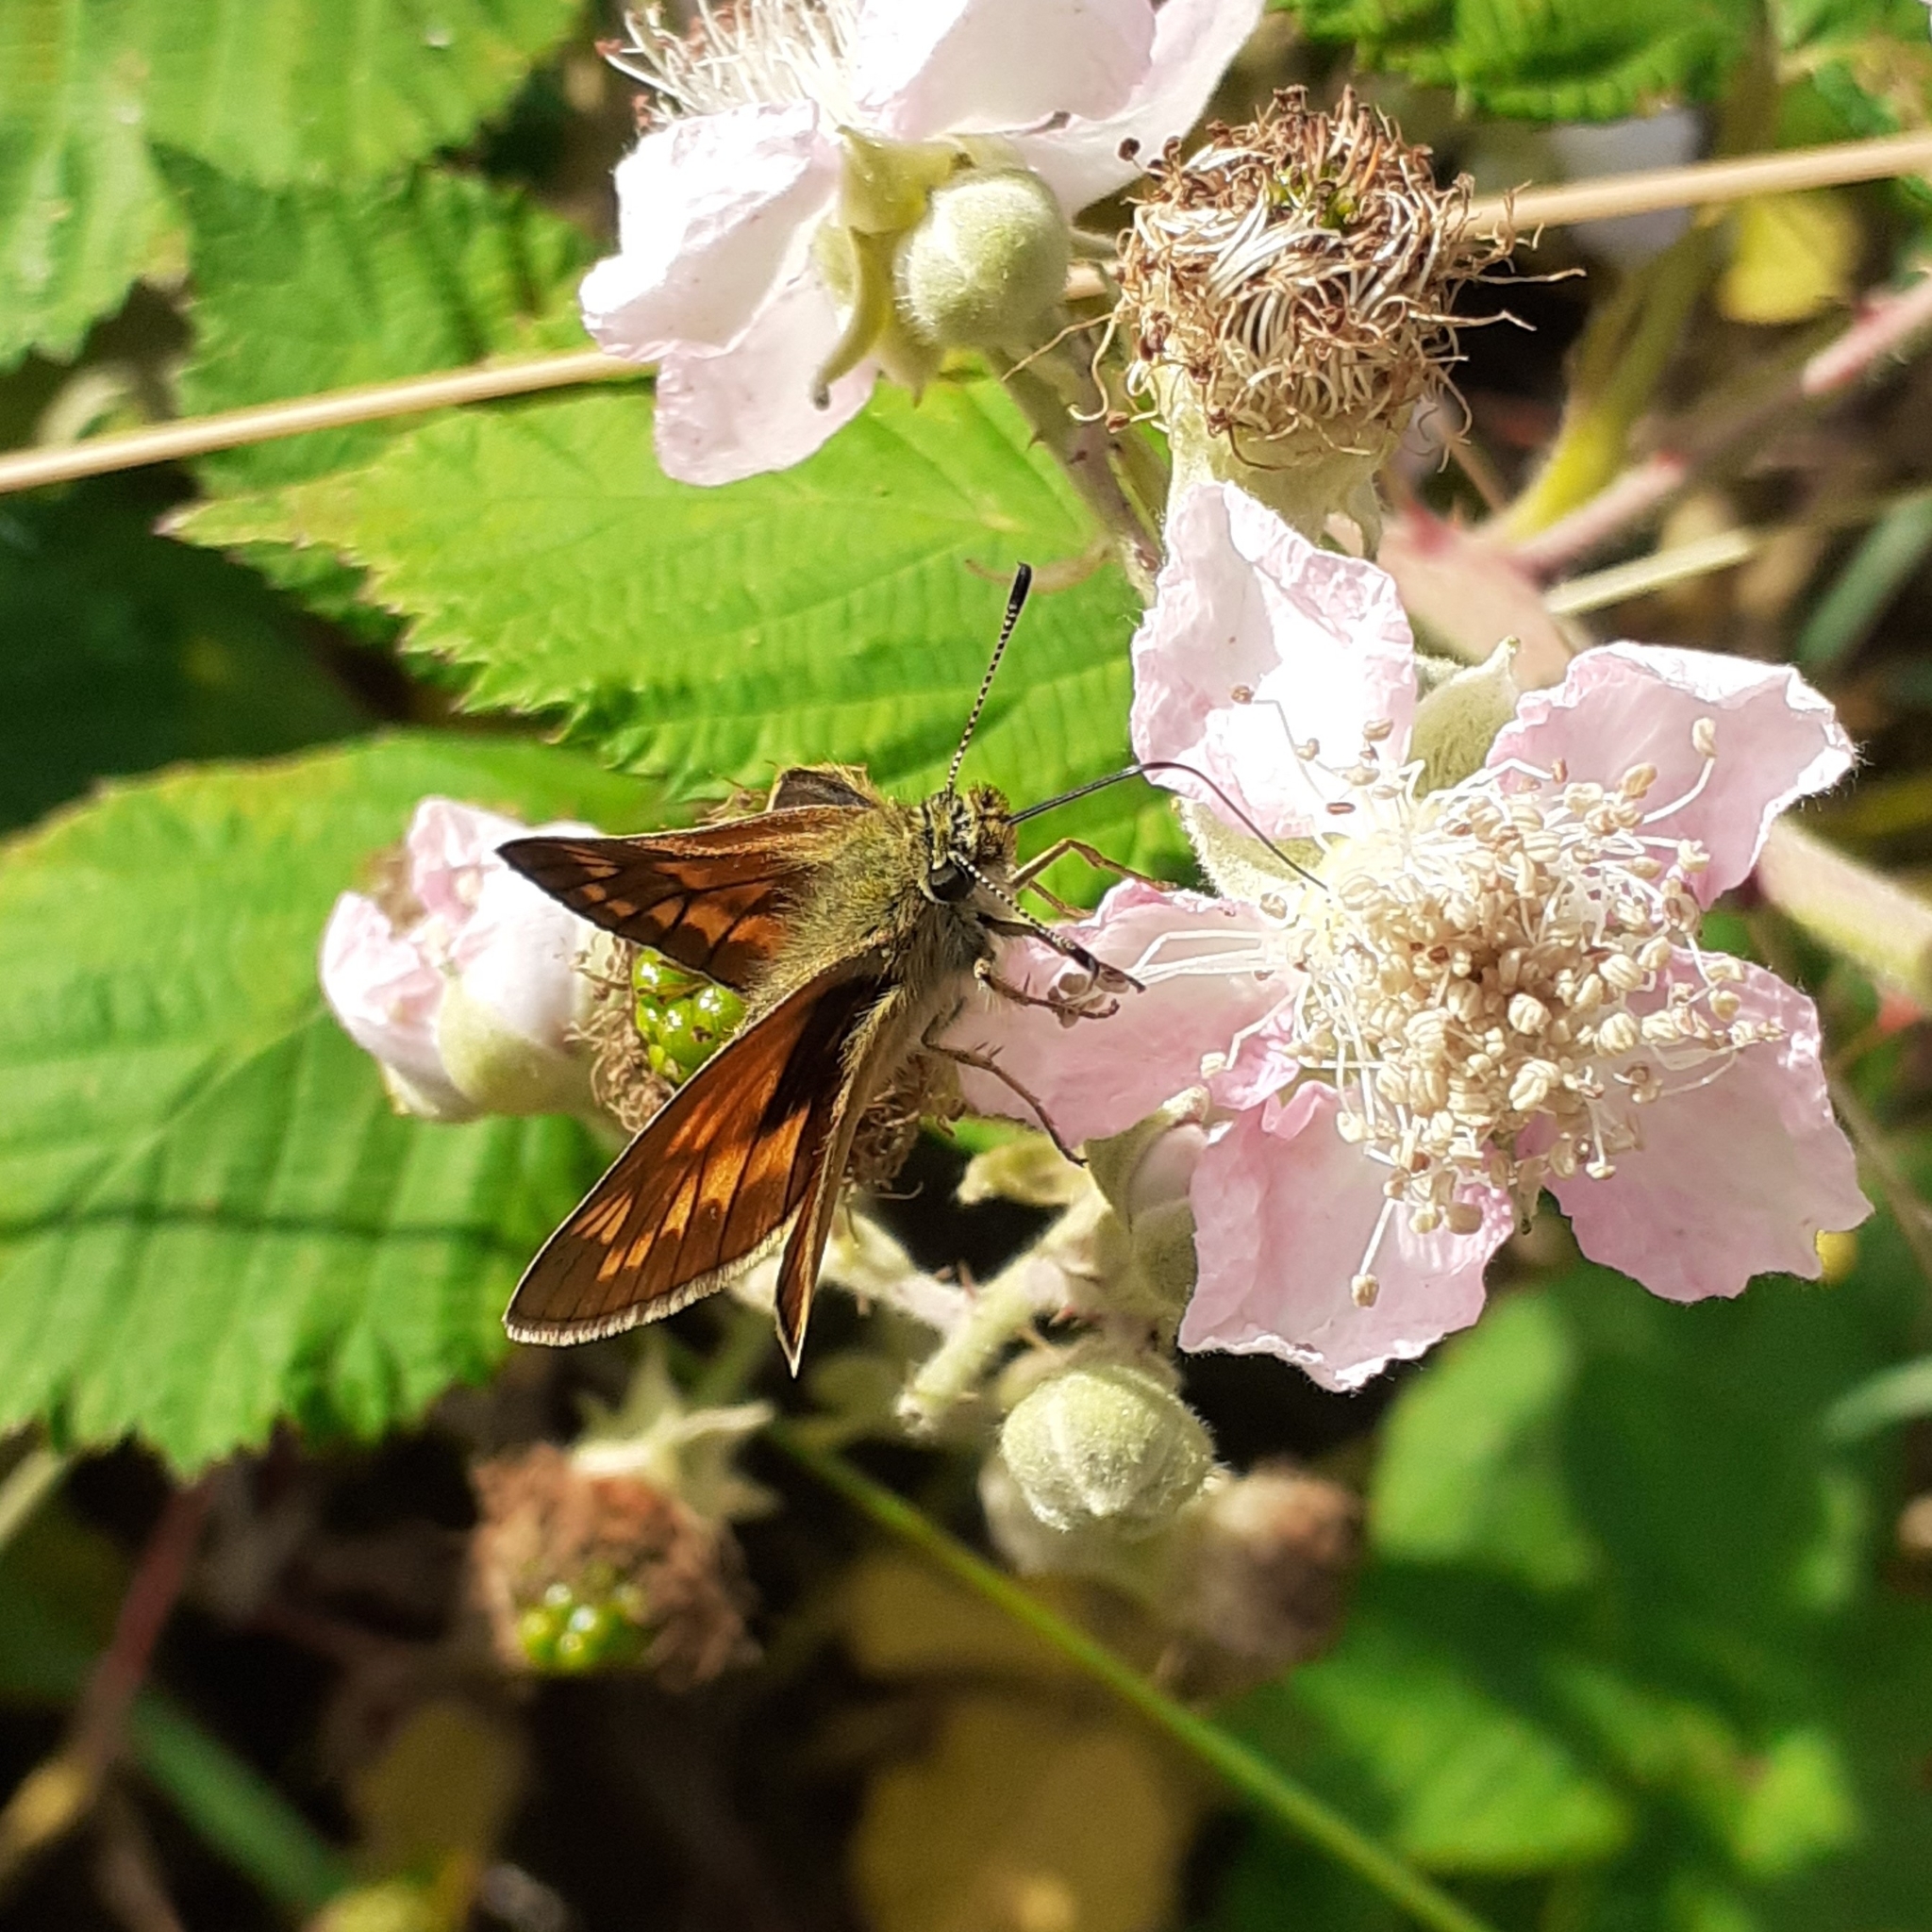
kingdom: Animalia
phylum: Arthropoda
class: Insecta
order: Lepidoptera
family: Hesperiidae
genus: Ochlodes
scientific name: Ochlodes venata
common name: Large skipper
